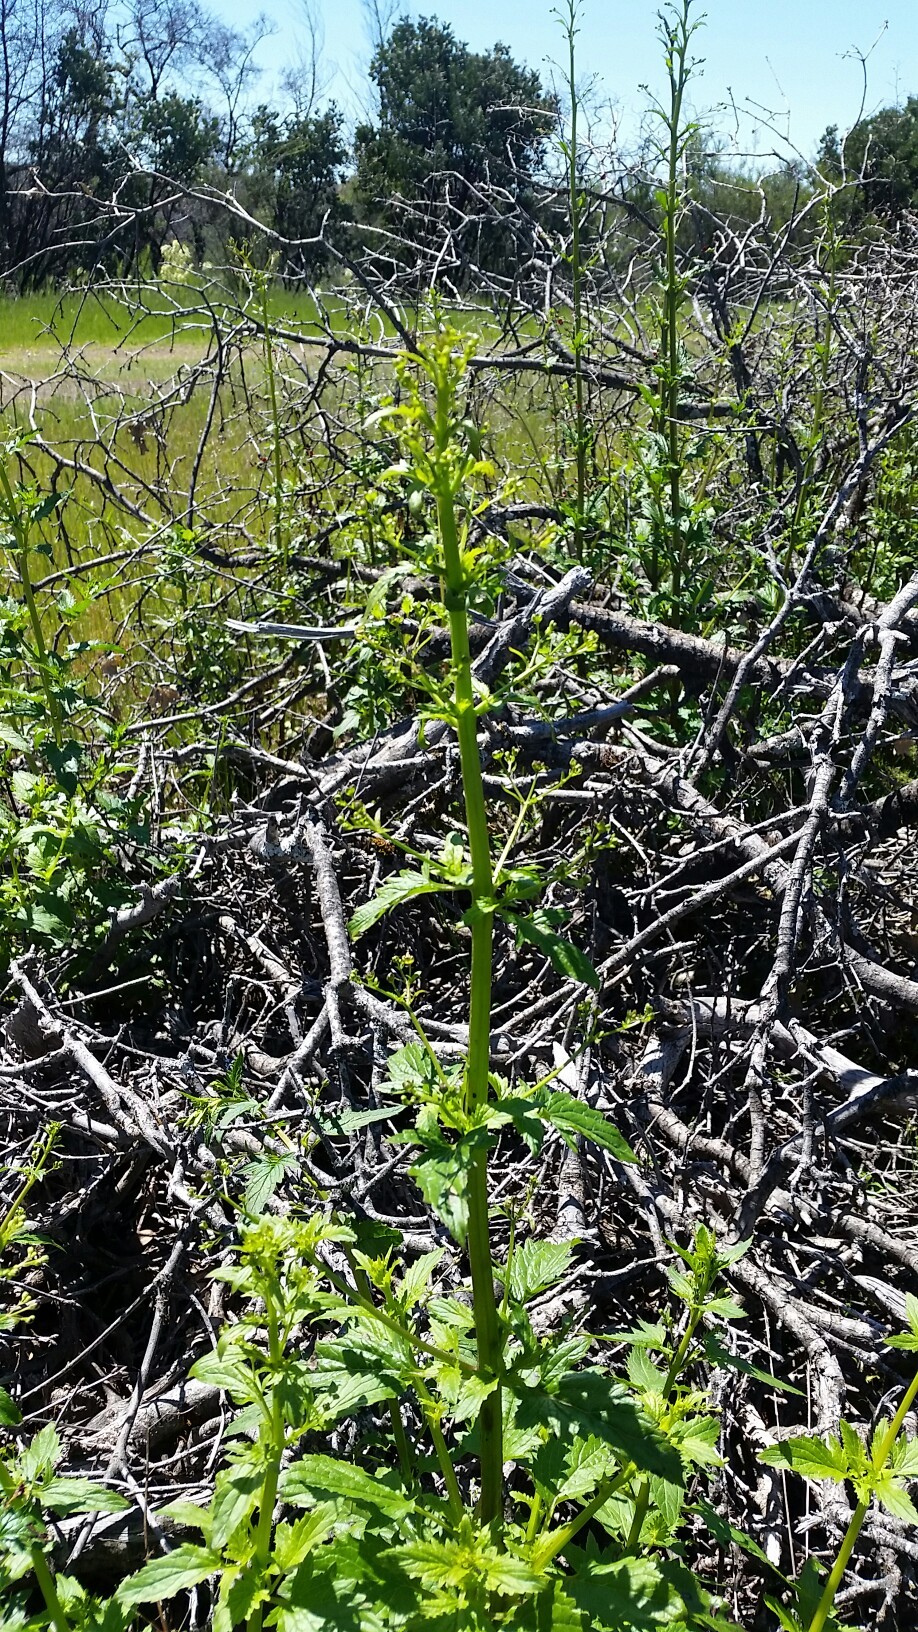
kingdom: Plantae
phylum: Tracheophyta
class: Magnoliopsida
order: Solanales
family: Solanaceae
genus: Solanum
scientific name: Solanum umbelliferum
